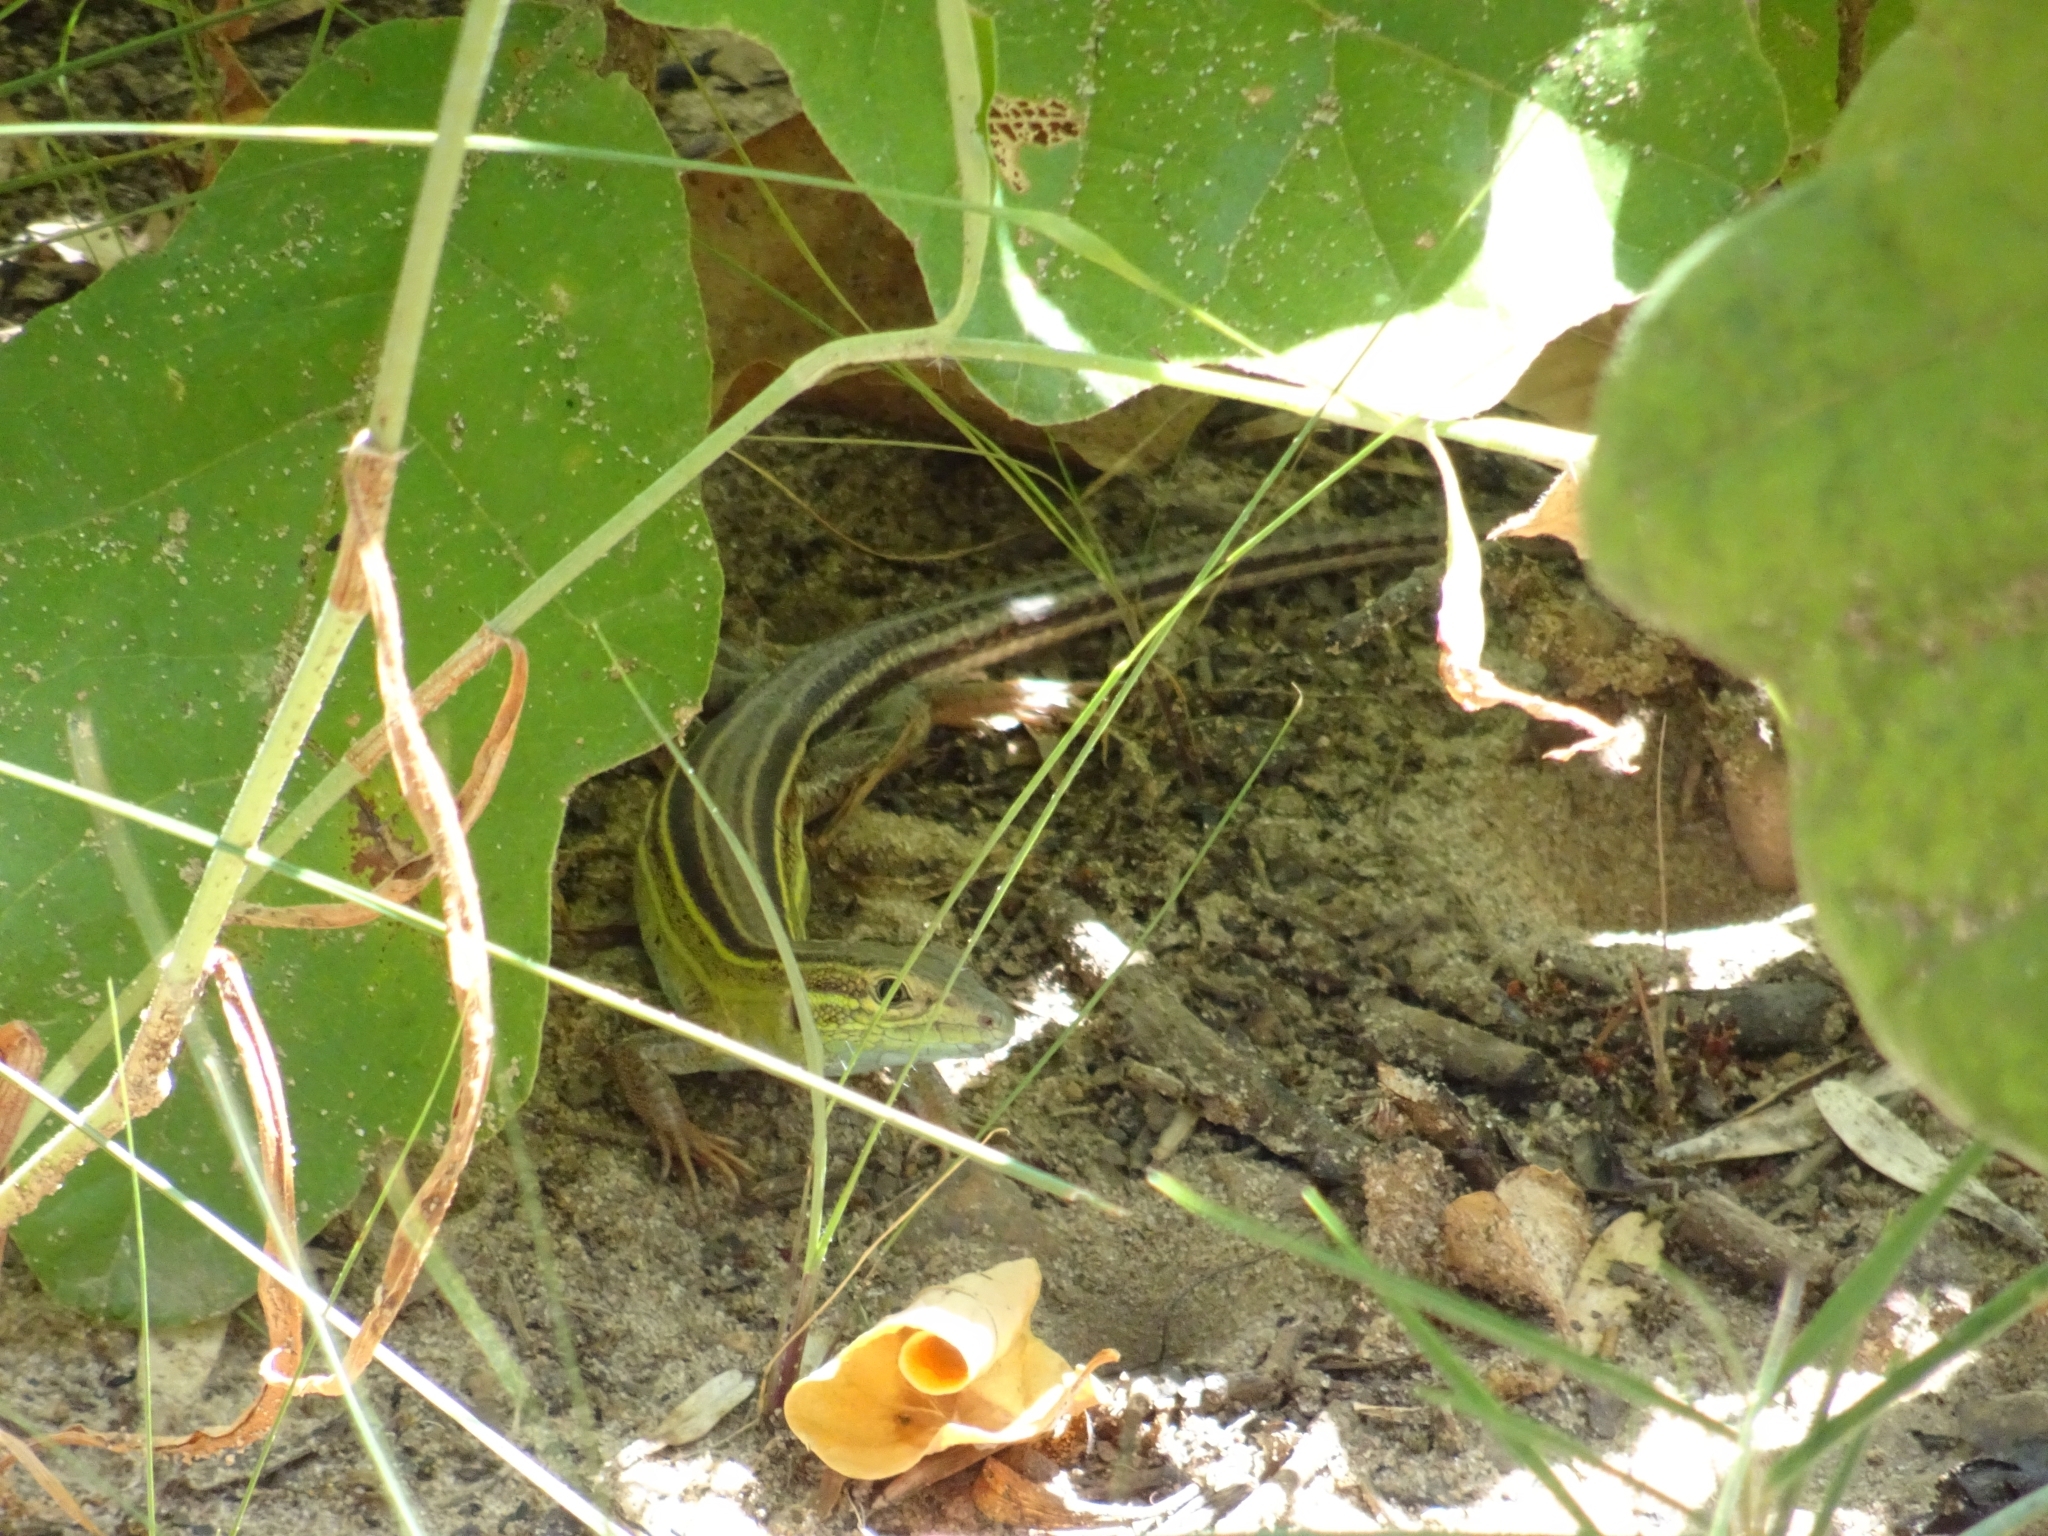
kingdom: Animalia
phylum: Chordata
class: Squamata
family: Teiidae
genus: Aspidoscelis
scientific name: Aspidoscelis sexlineatus
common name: Six-lined racerunner
